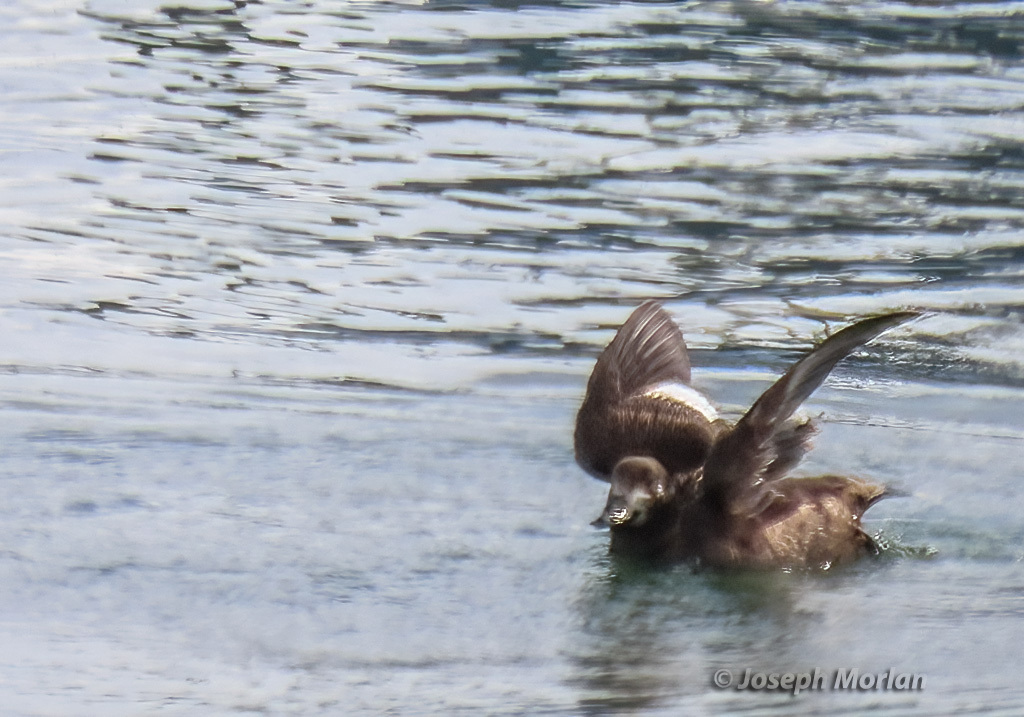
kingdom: Animalia
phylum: Chordata
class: Aves
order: Anseriformes
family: Anatidae
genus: Melanitta
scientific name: Melanitta deglandi
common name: White-winged scoter
